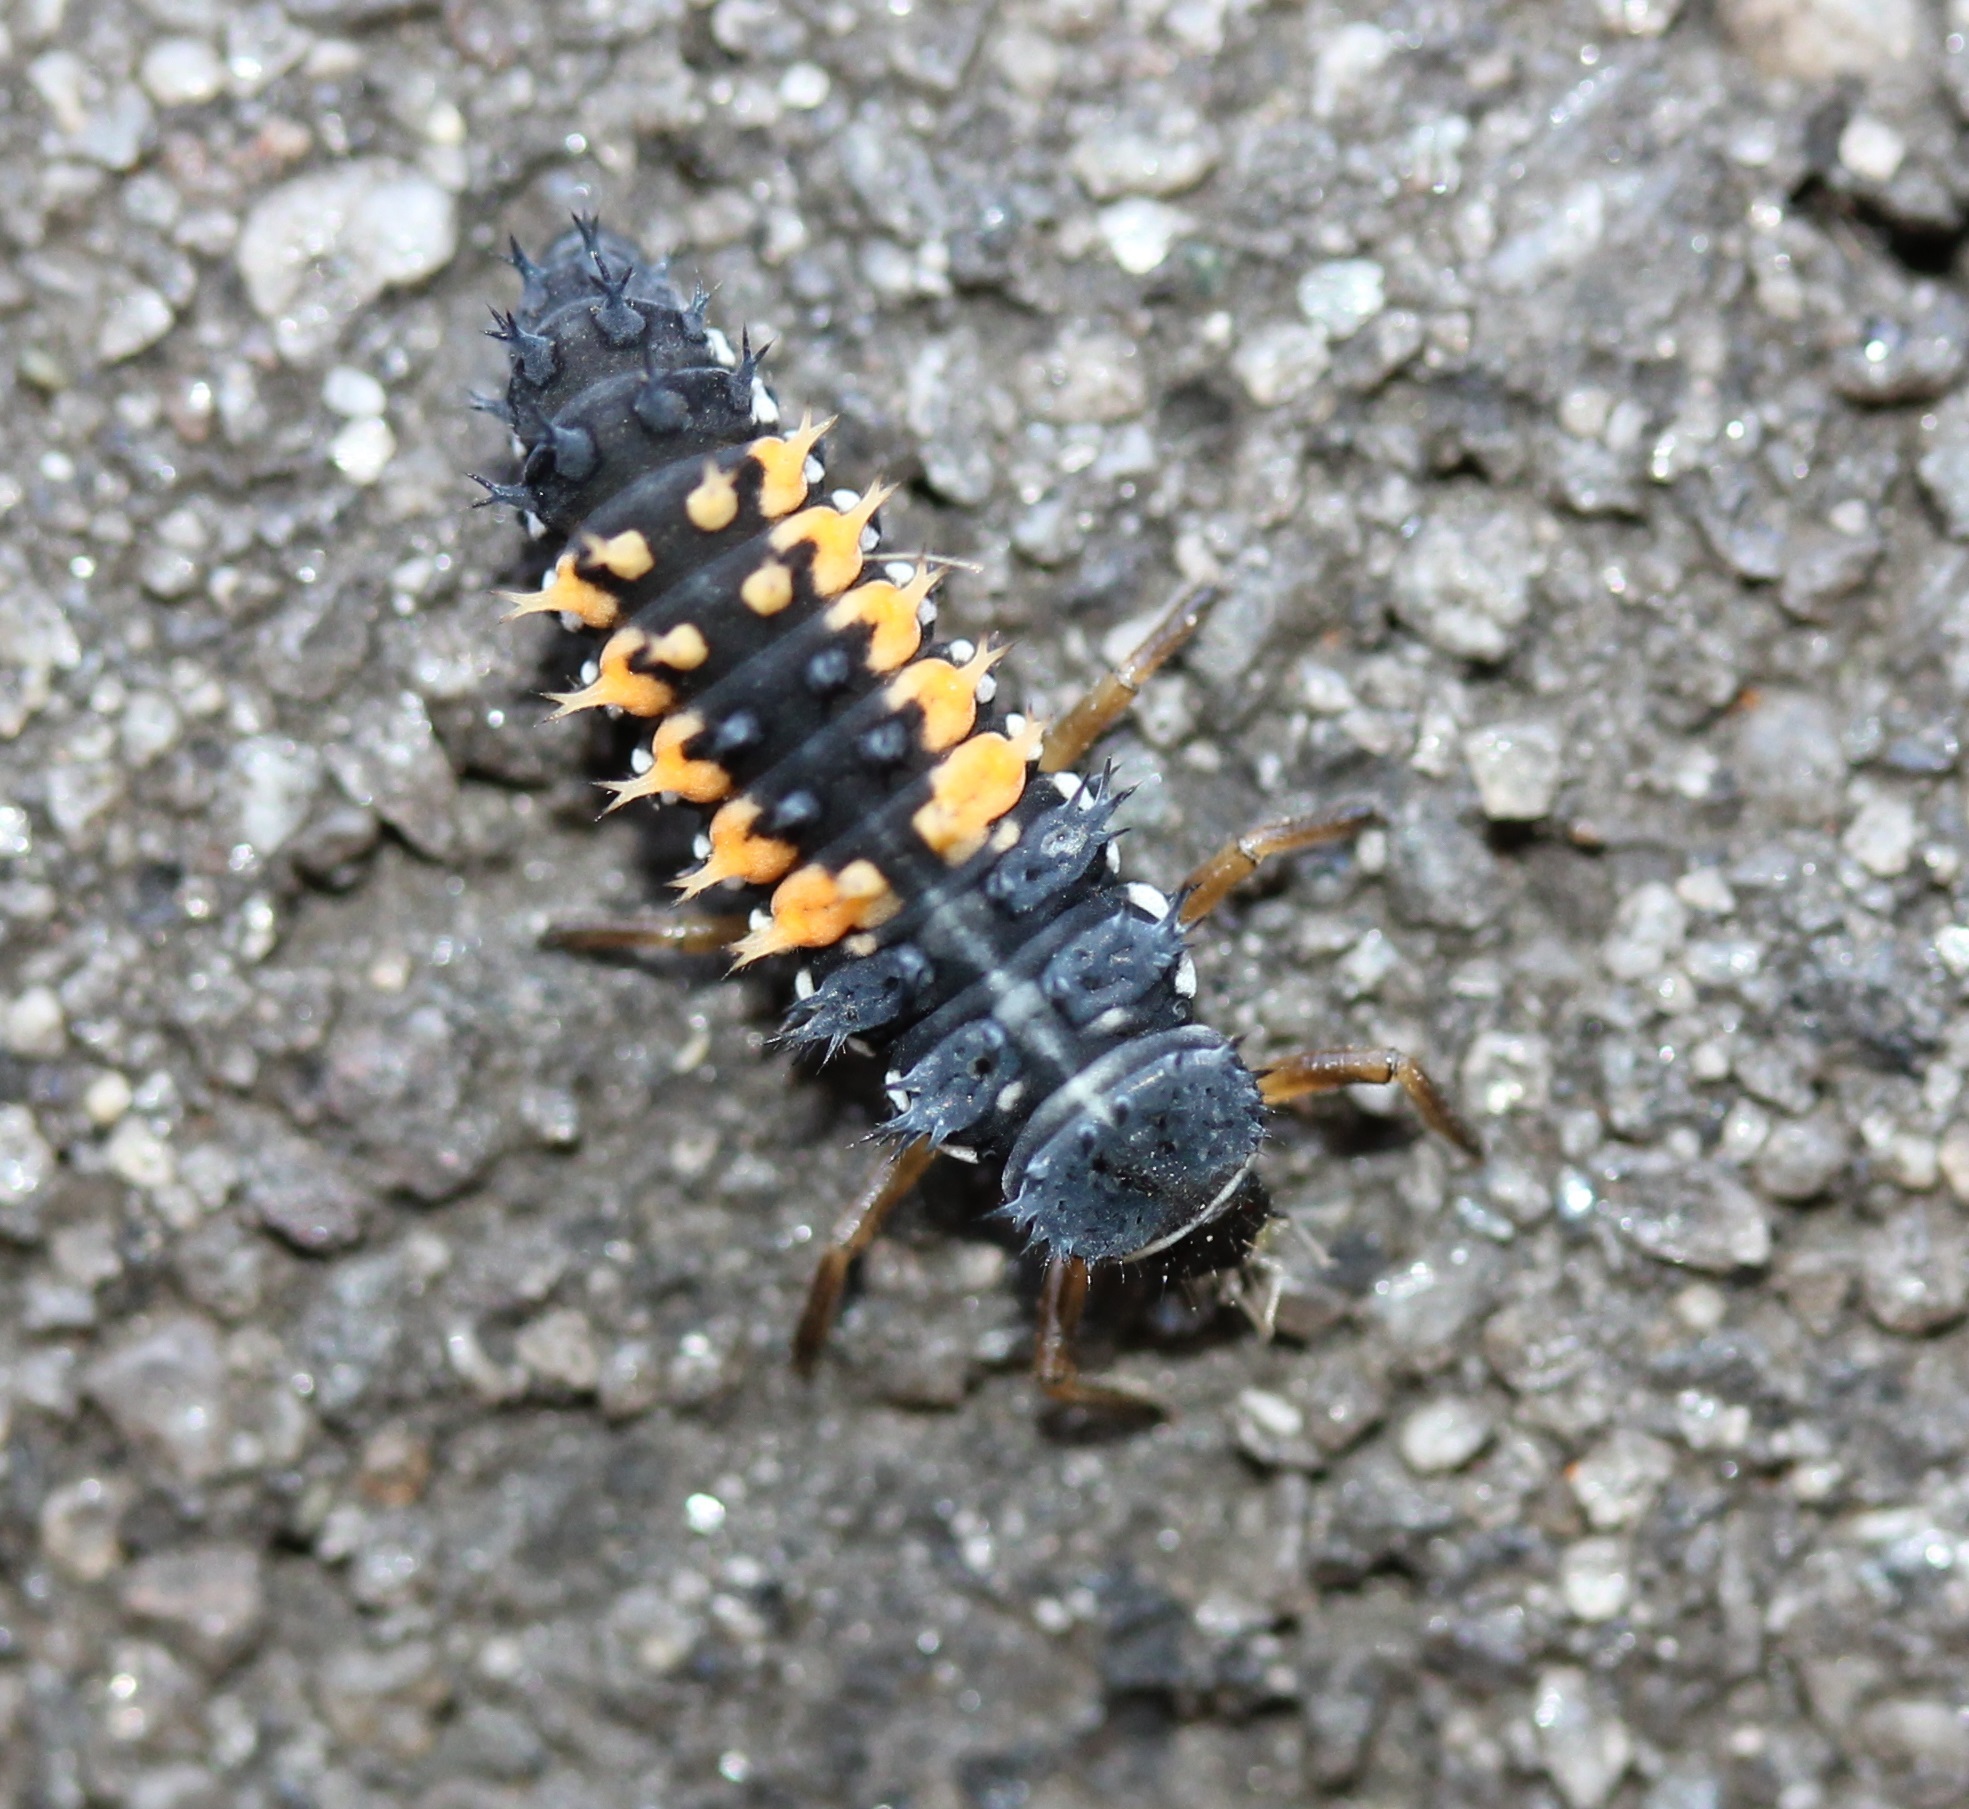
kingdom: Animalia
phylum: Arthropoda
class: Insecta
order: Coleoptera
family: Coccinellidae
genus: Harmonia
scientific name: Harmonia axyridis
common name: Harlequin ladybird
